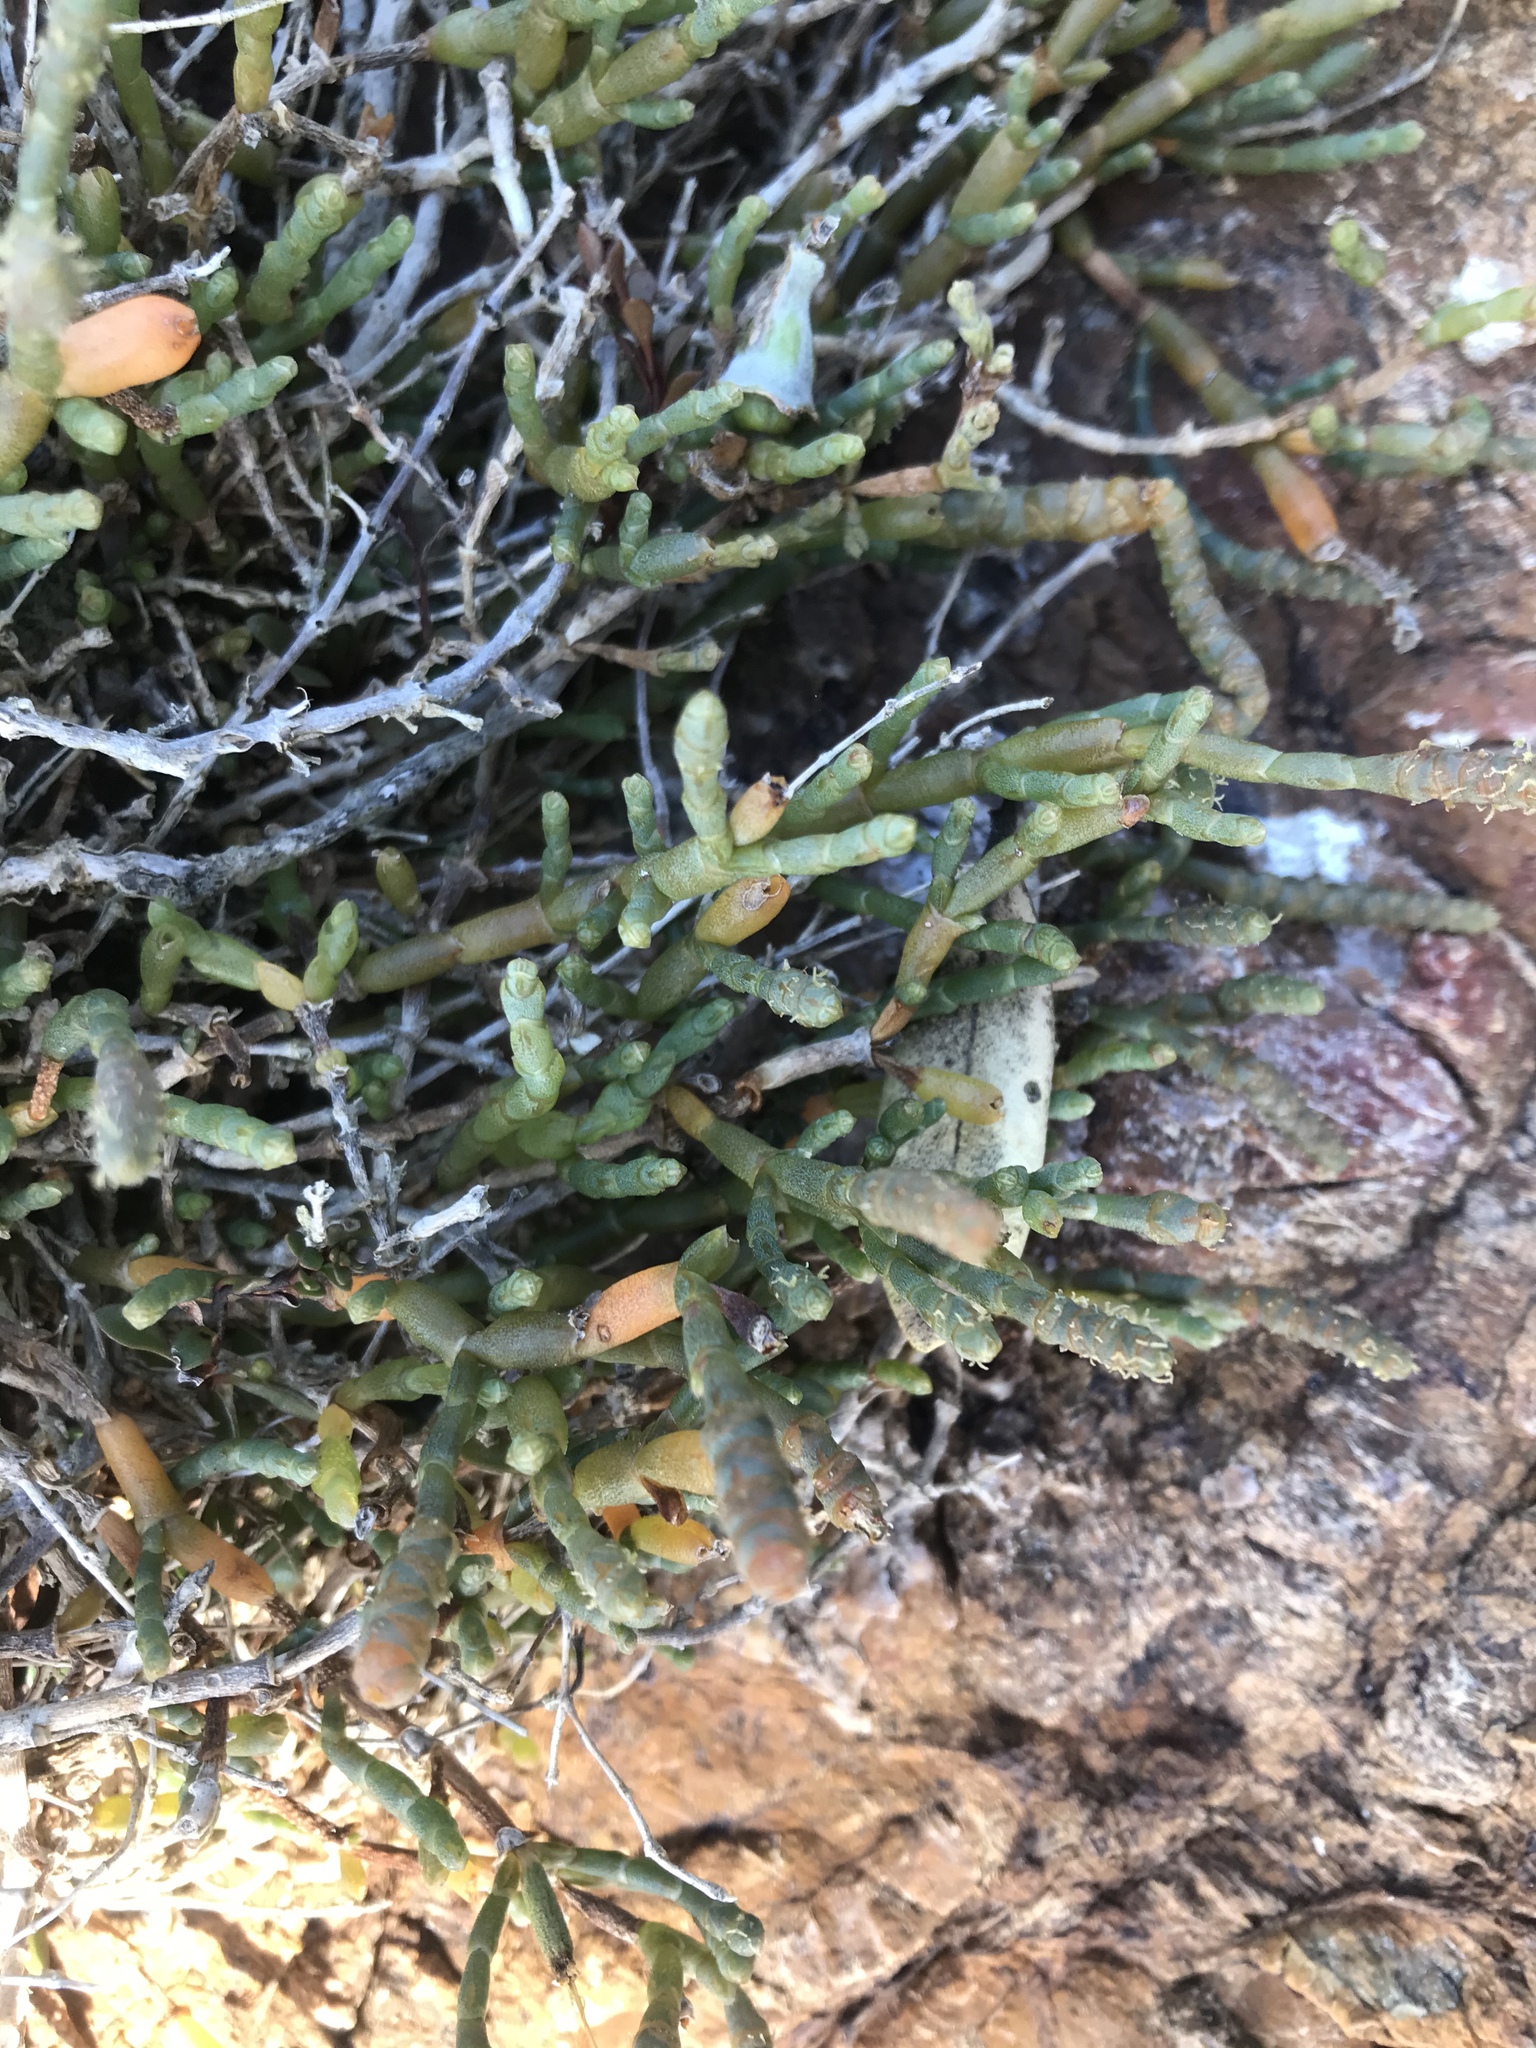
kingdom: Plantae
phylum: Tracheophyta
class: Magnoliopsida
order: Caryophyllales
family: Amaranthaceae
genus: Salicornia
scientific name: Salicornia quinqueflora
